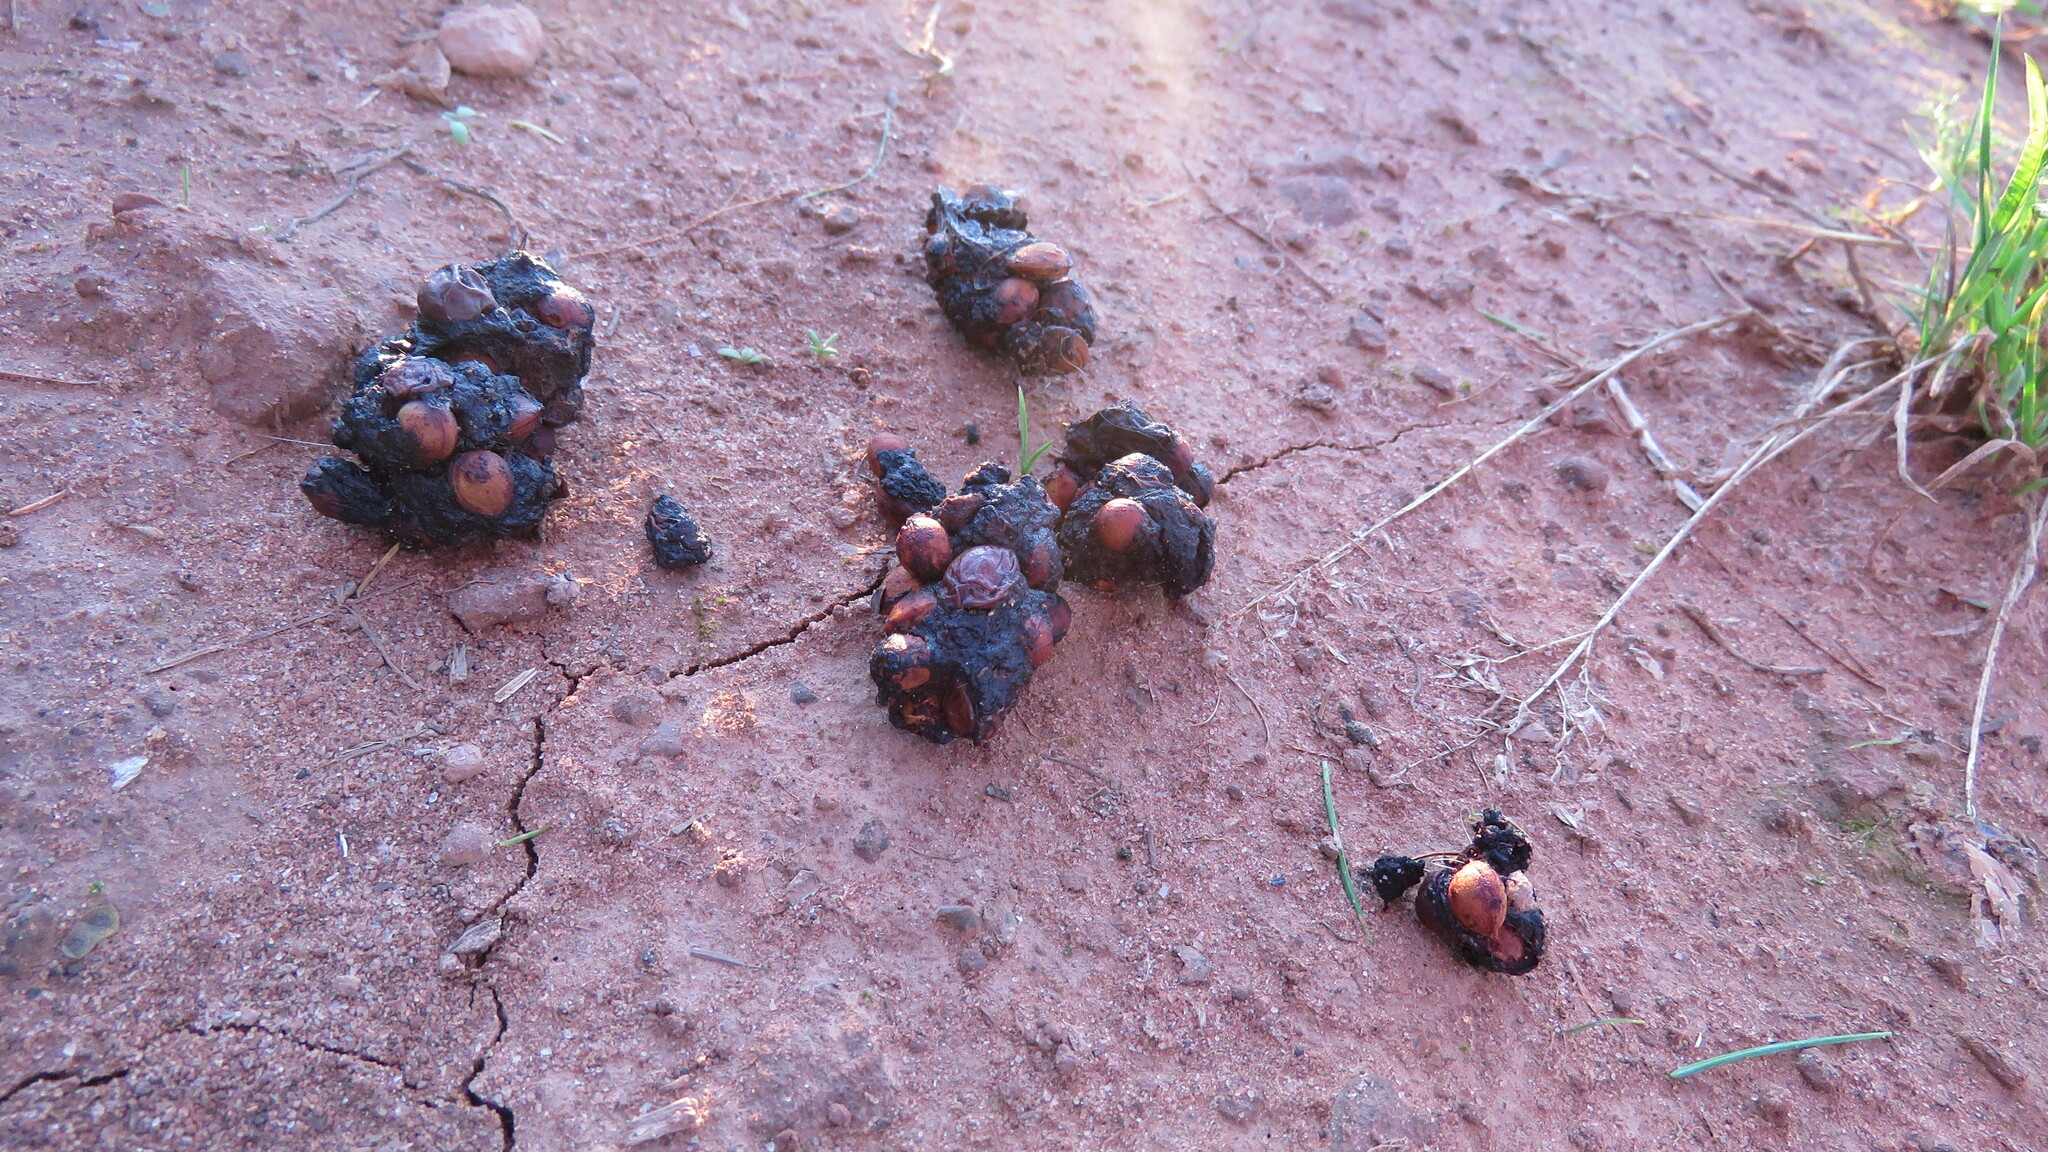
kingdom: Animalia
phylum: Chordata
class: Mammalia
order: Carnivora
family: Procyonidae
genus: Procyon
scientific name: Procyon lotor
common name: Raccoon
